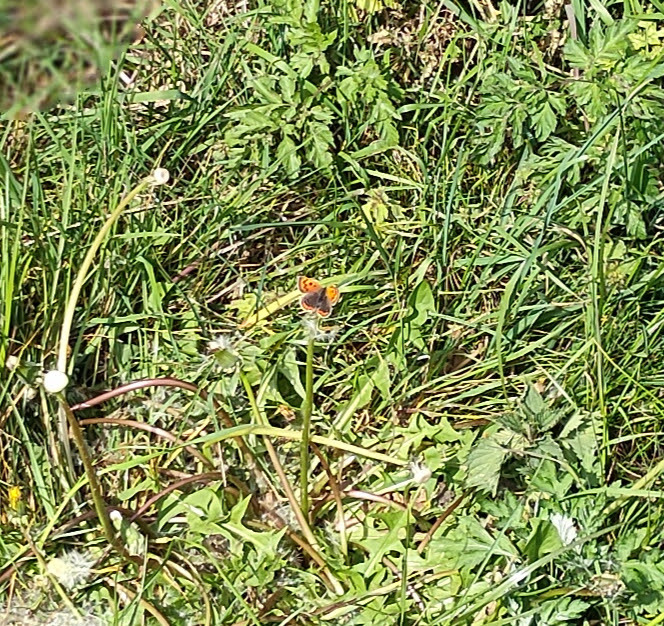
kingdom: Animalia
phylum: Arthropoda
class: Insecta
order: Lepidoptera
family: Lycaenidae
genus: Lycaena
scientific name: Lycaena phlaeas
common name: Small copper
